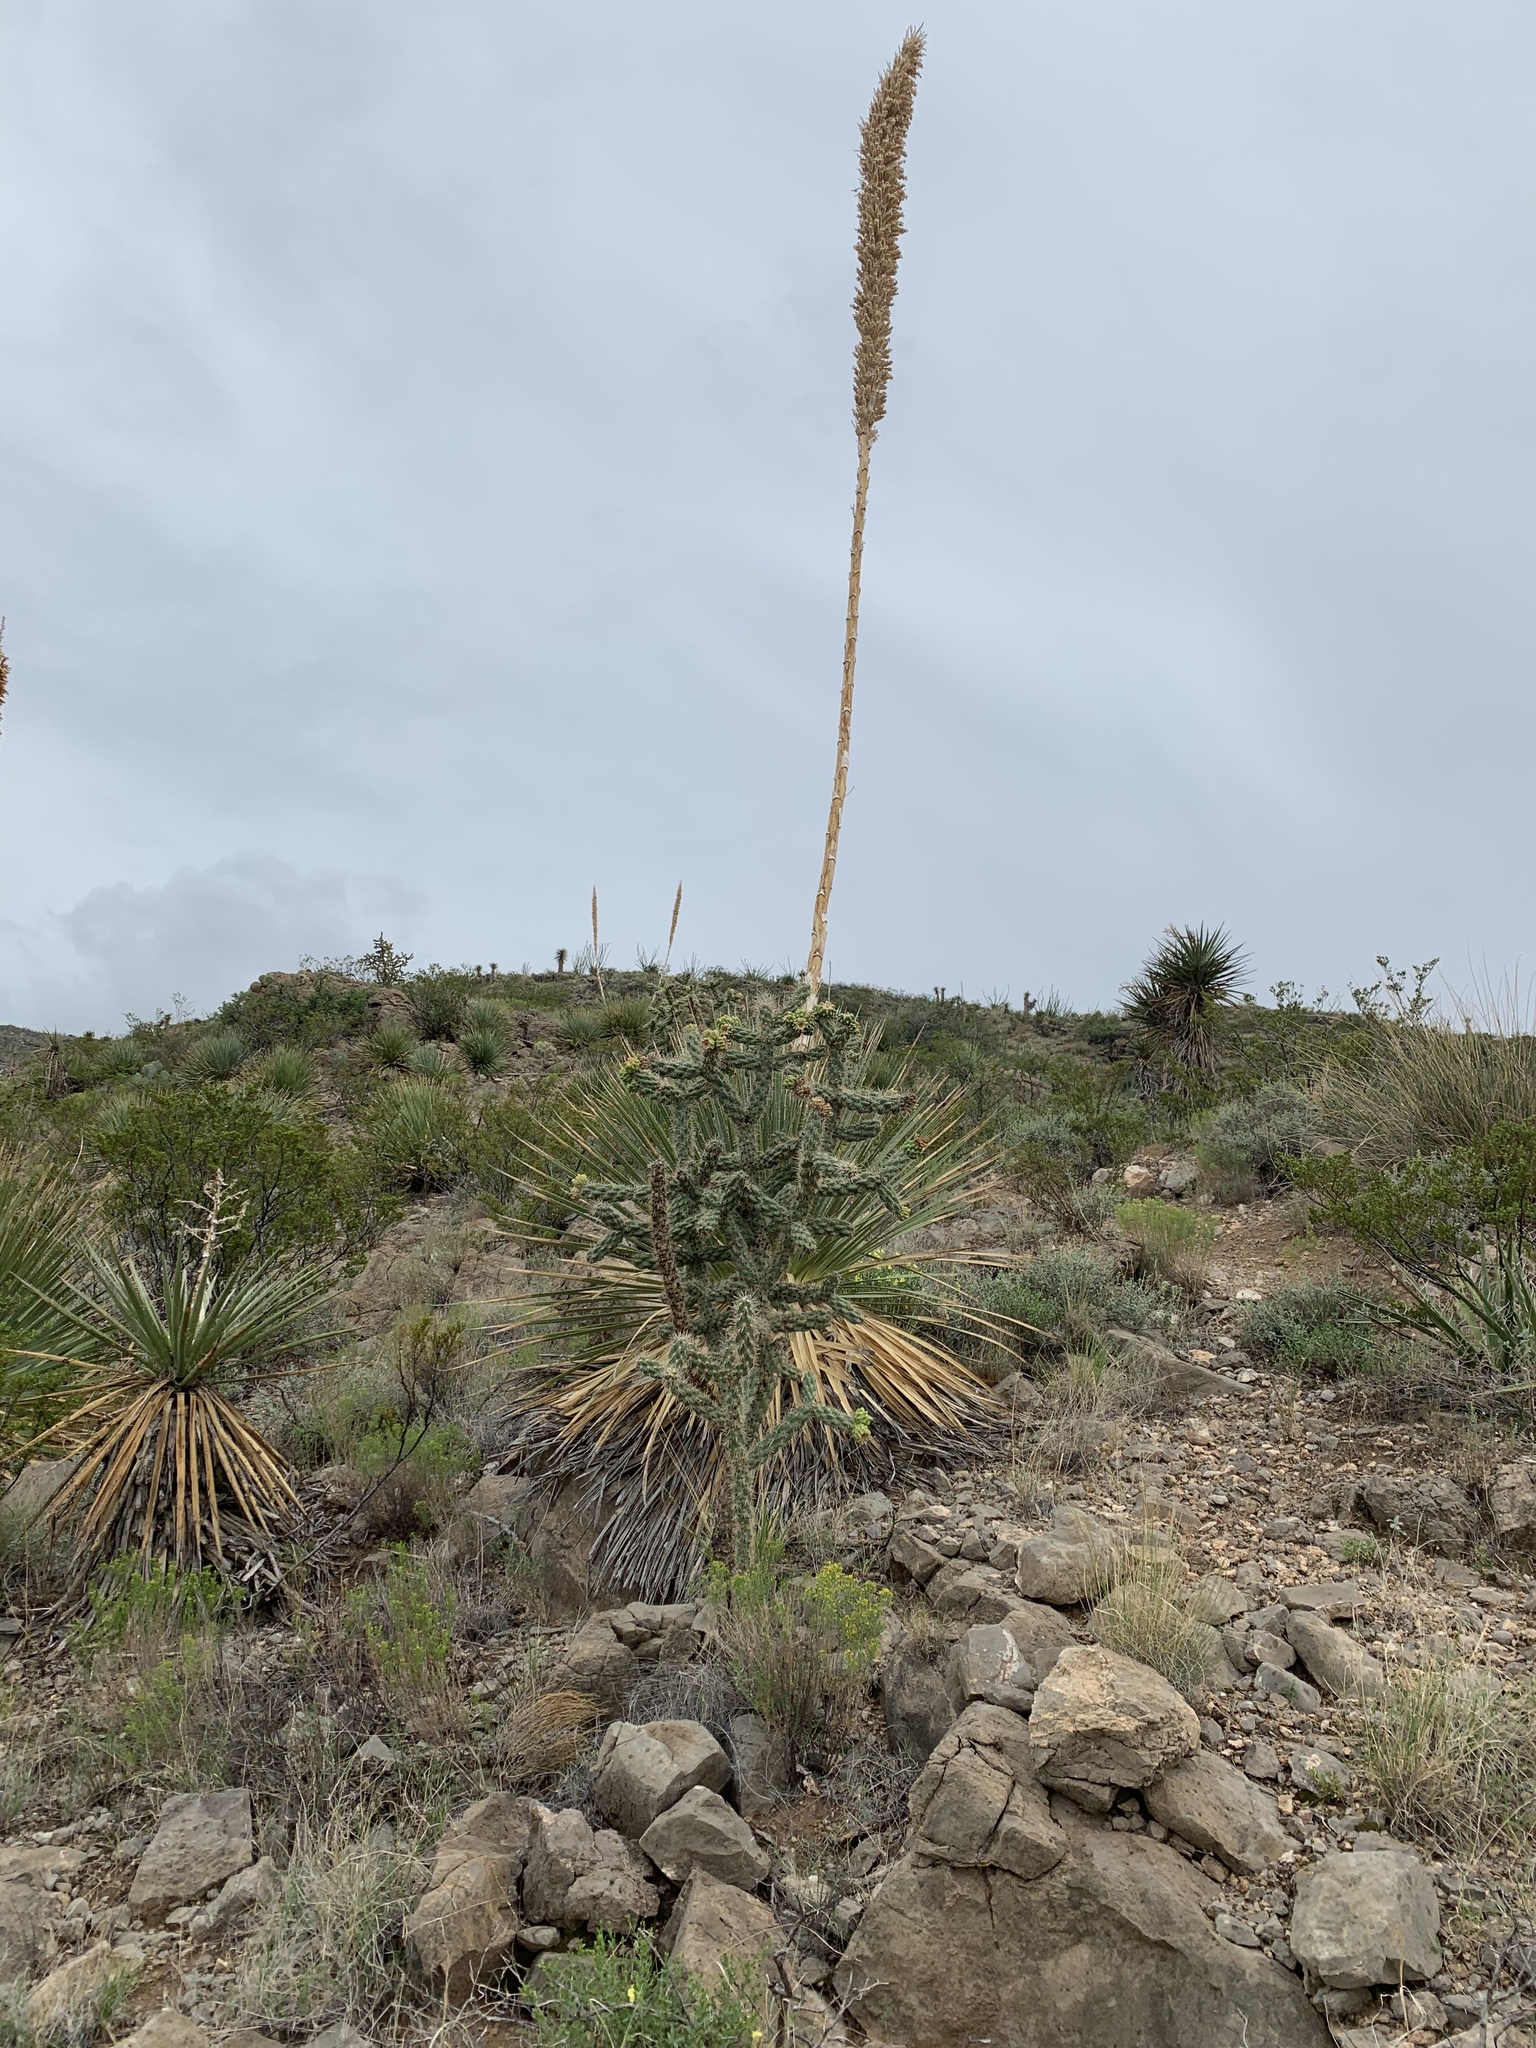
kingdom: Plantae
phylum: Tracheophyta
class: Magnoliopsida
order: Caryophyllales
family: Cactaceae
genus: Cylindropuntia
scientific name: Cylindropuntia imbricata
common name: Candelabrum cactus
